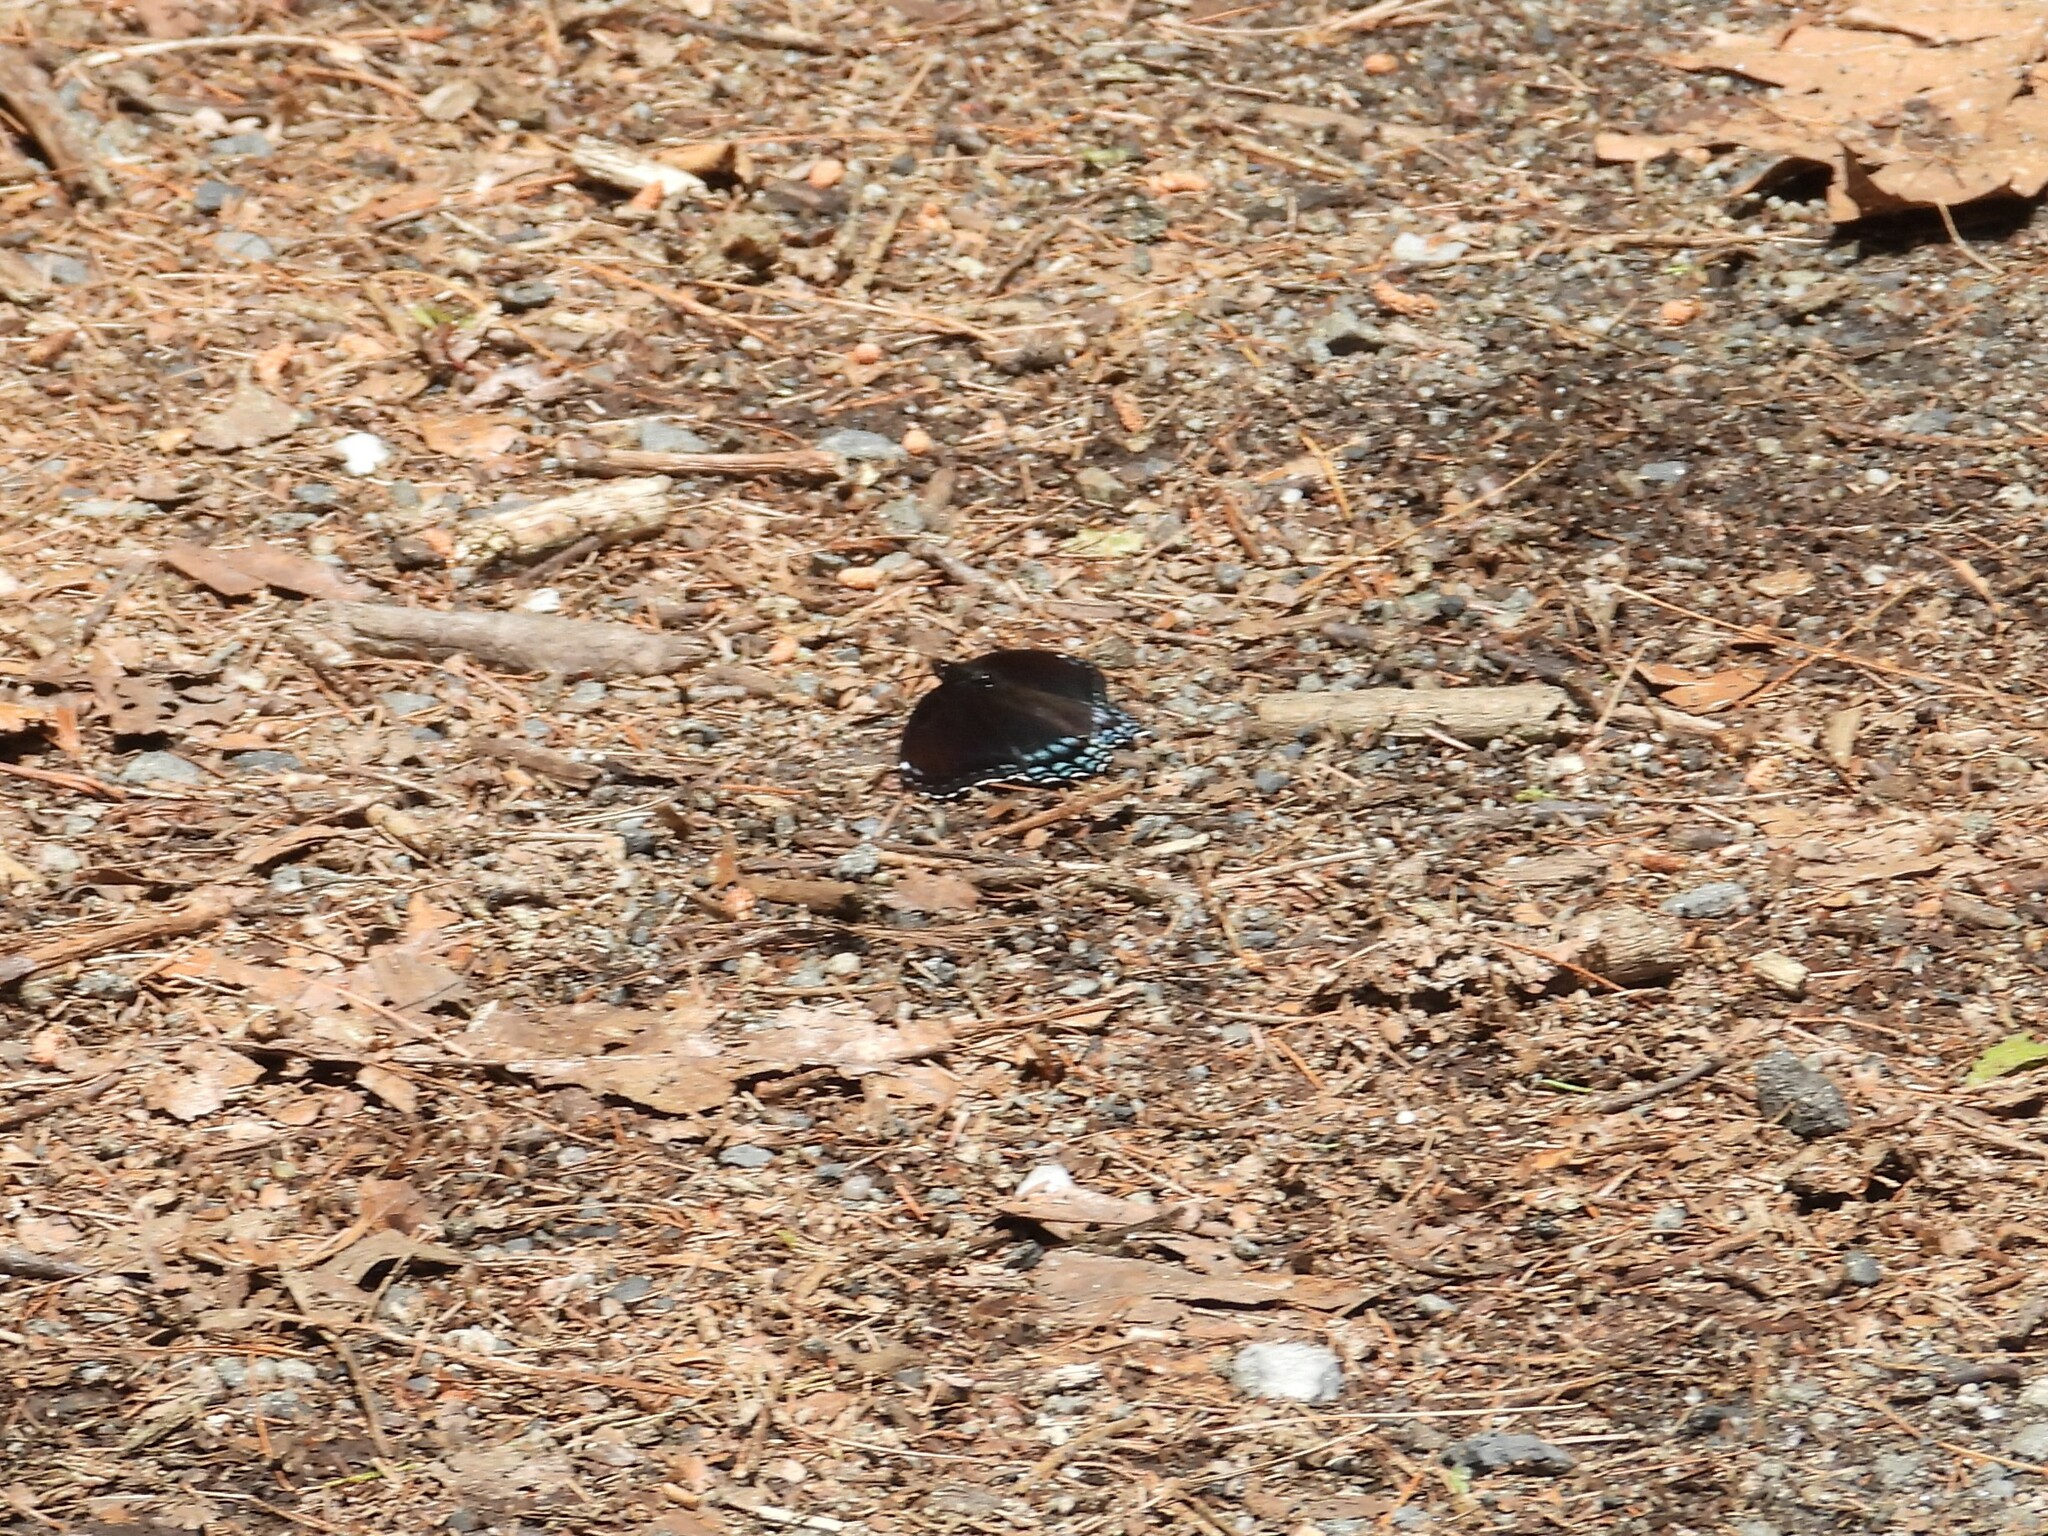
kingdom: Animalia
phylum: Arthropoda
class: Insecta
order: Lepidoptera
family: Nymphalidae
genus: Limenitis
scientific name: Limenitis arthemis
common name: Red-spotted admiral
